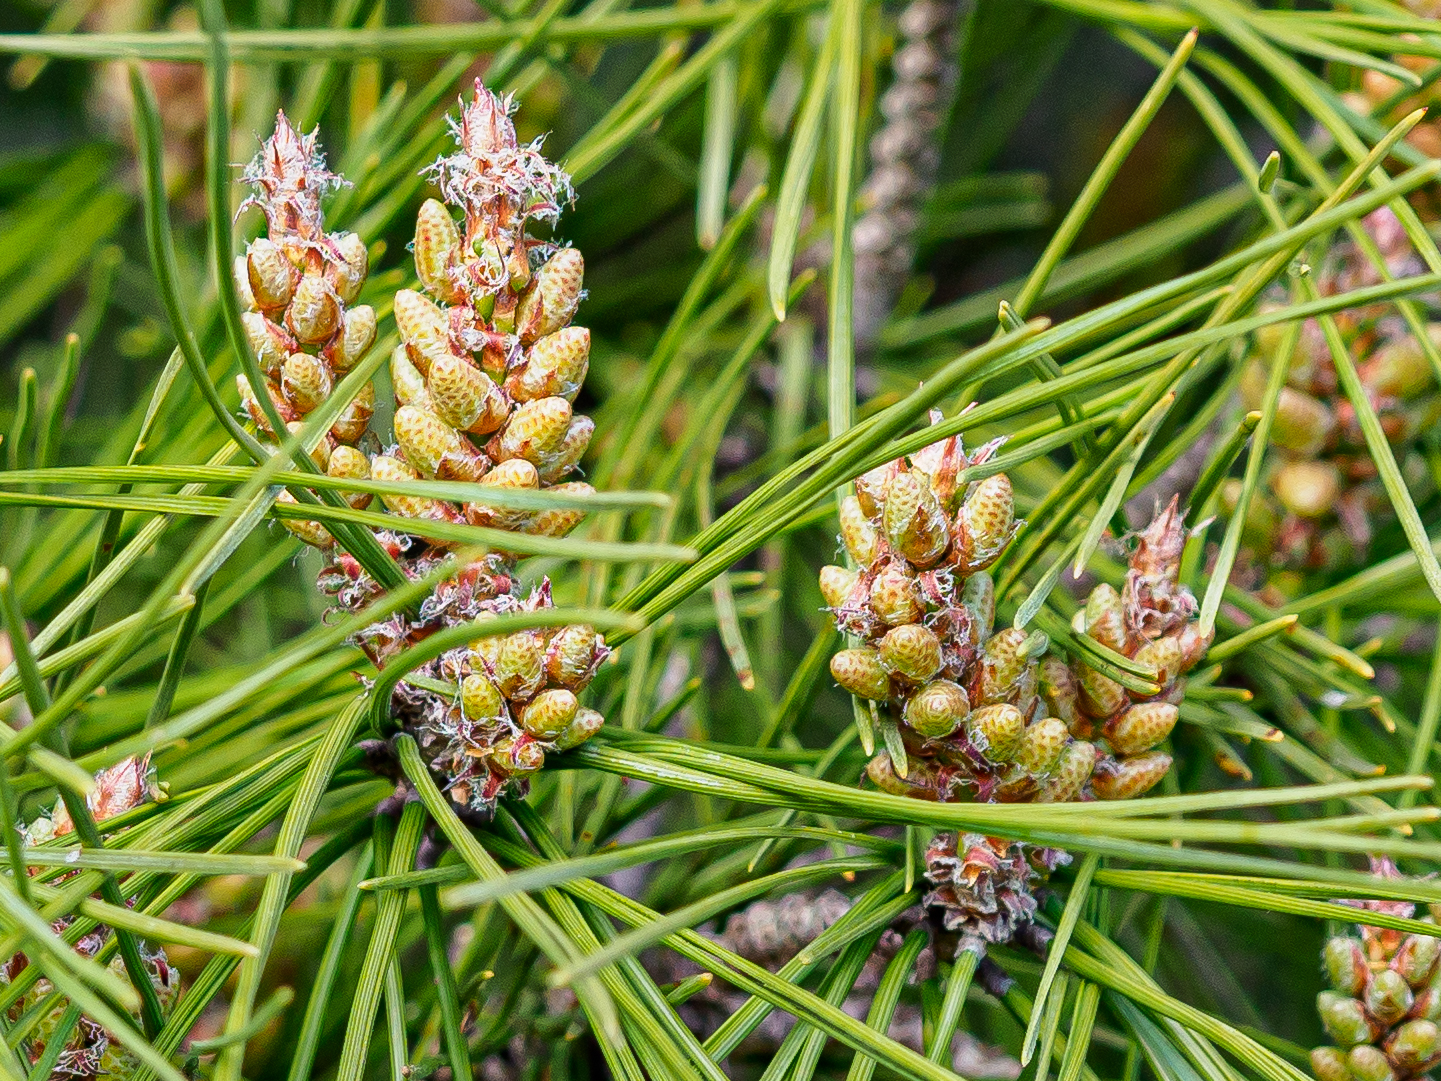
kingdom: Plantae
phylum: Tracheophyta
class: Pinopsida
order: Pinales
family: Pinaceae
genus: Pinus
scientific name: Pinus halepensis
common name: Aleppo pine
